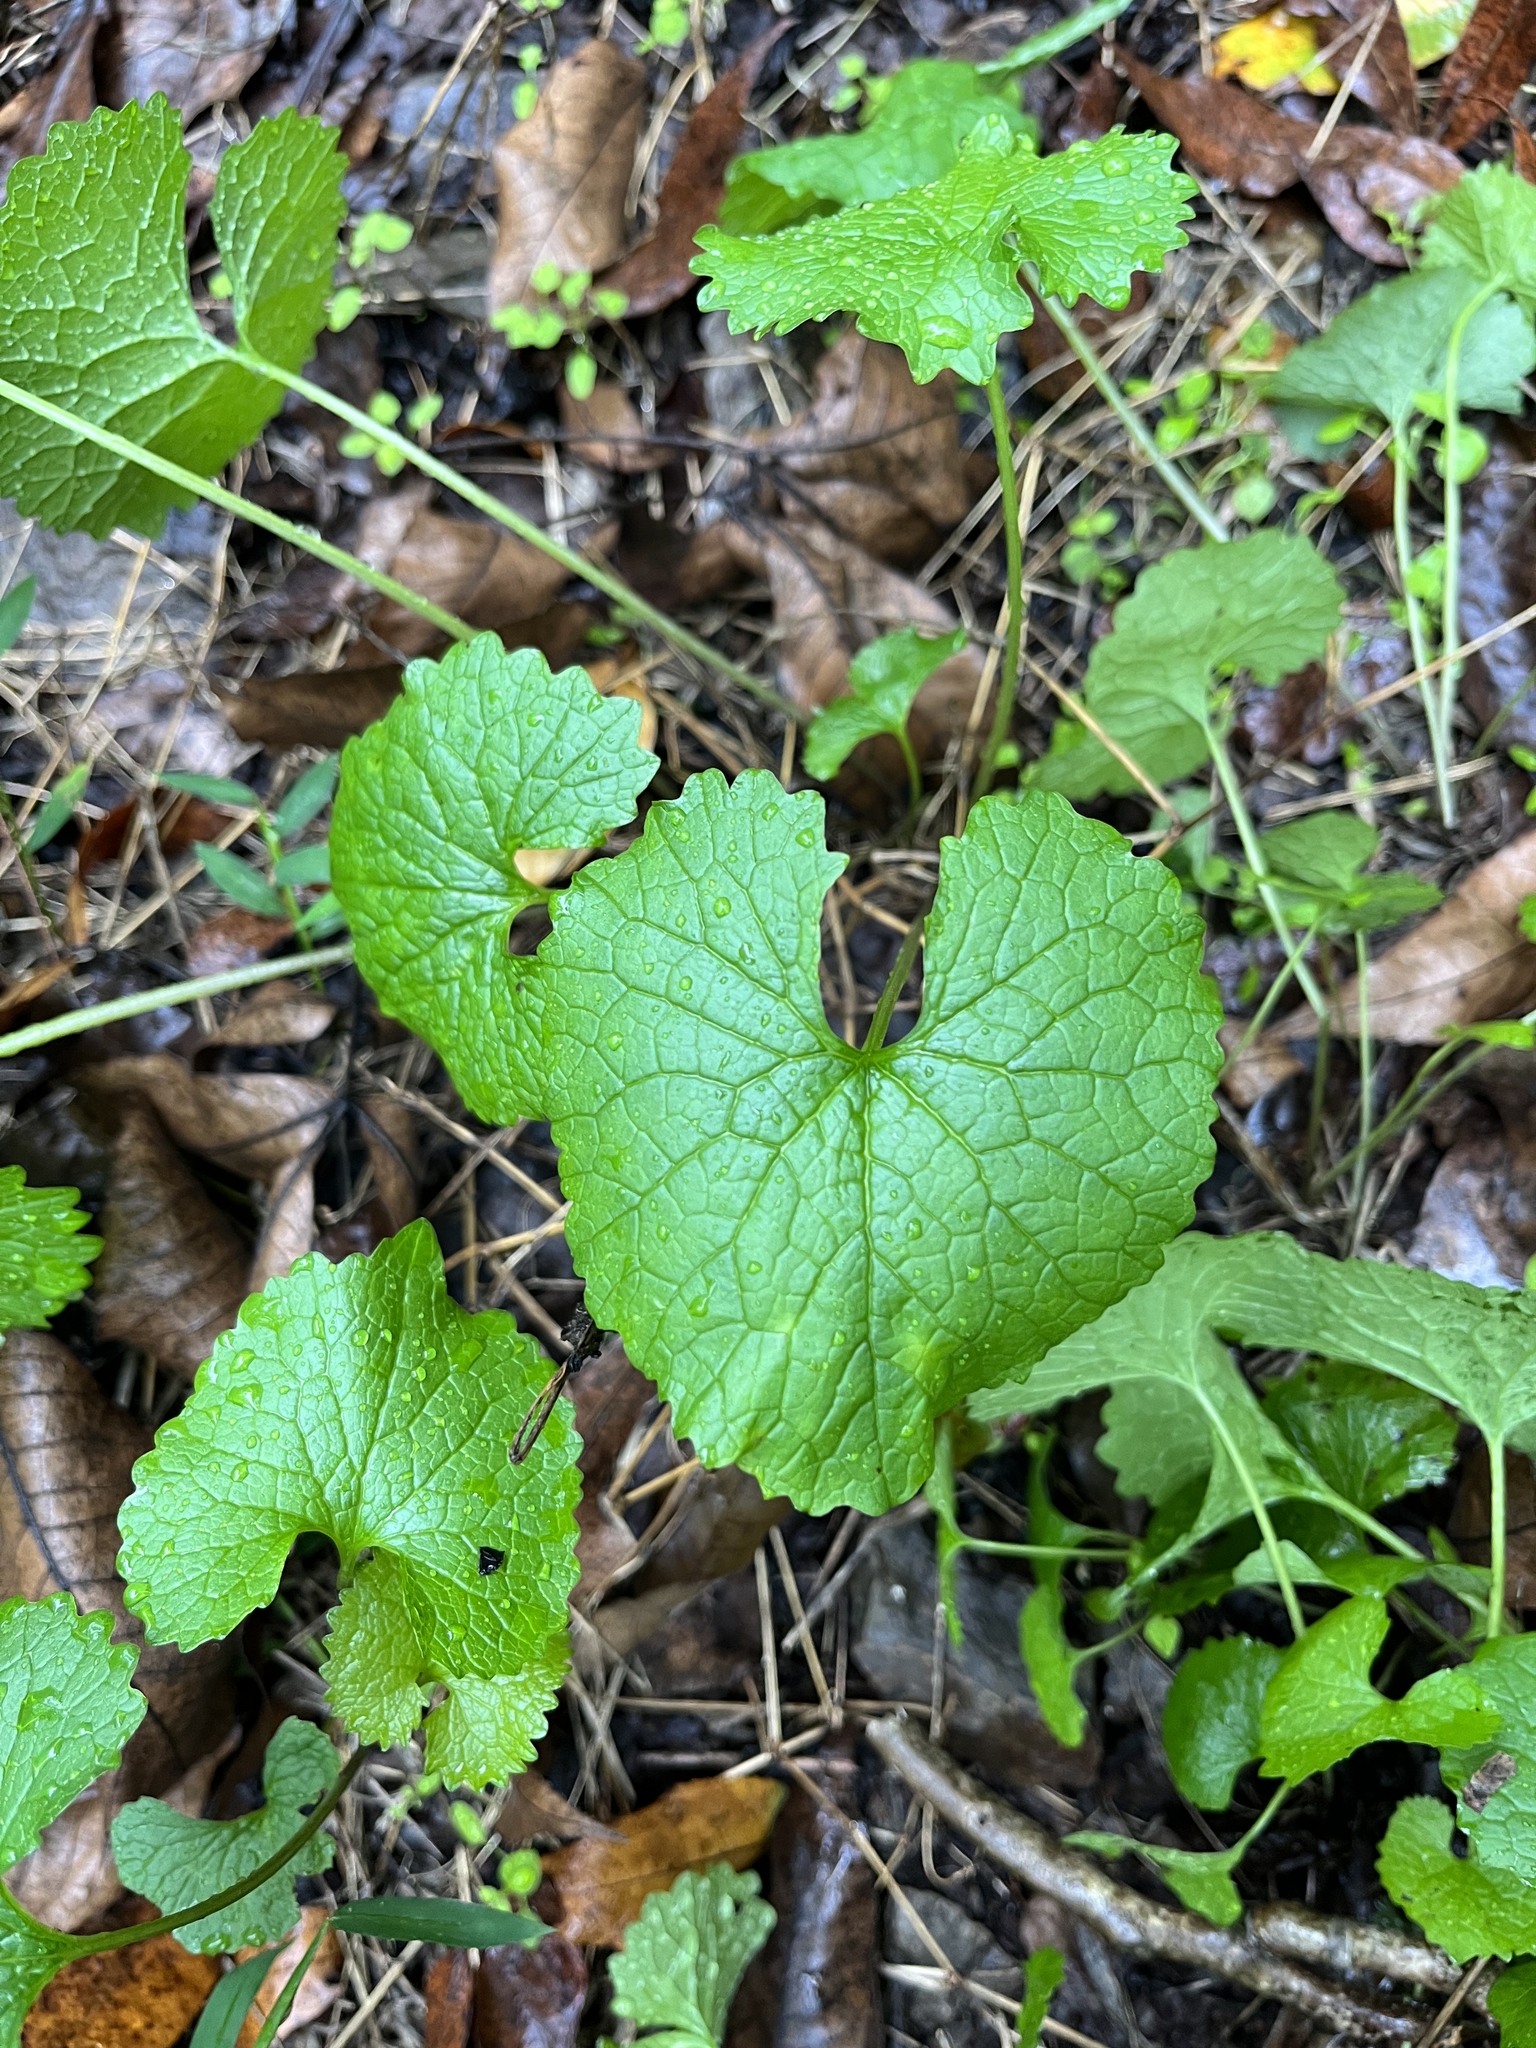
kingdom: Plantae
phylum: Tracheophyta
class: Magnoliopsida
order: Brassicales
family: Brassicaceae
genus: Alliaria
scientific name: Alliaria petiolata
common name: Garlic mustard
